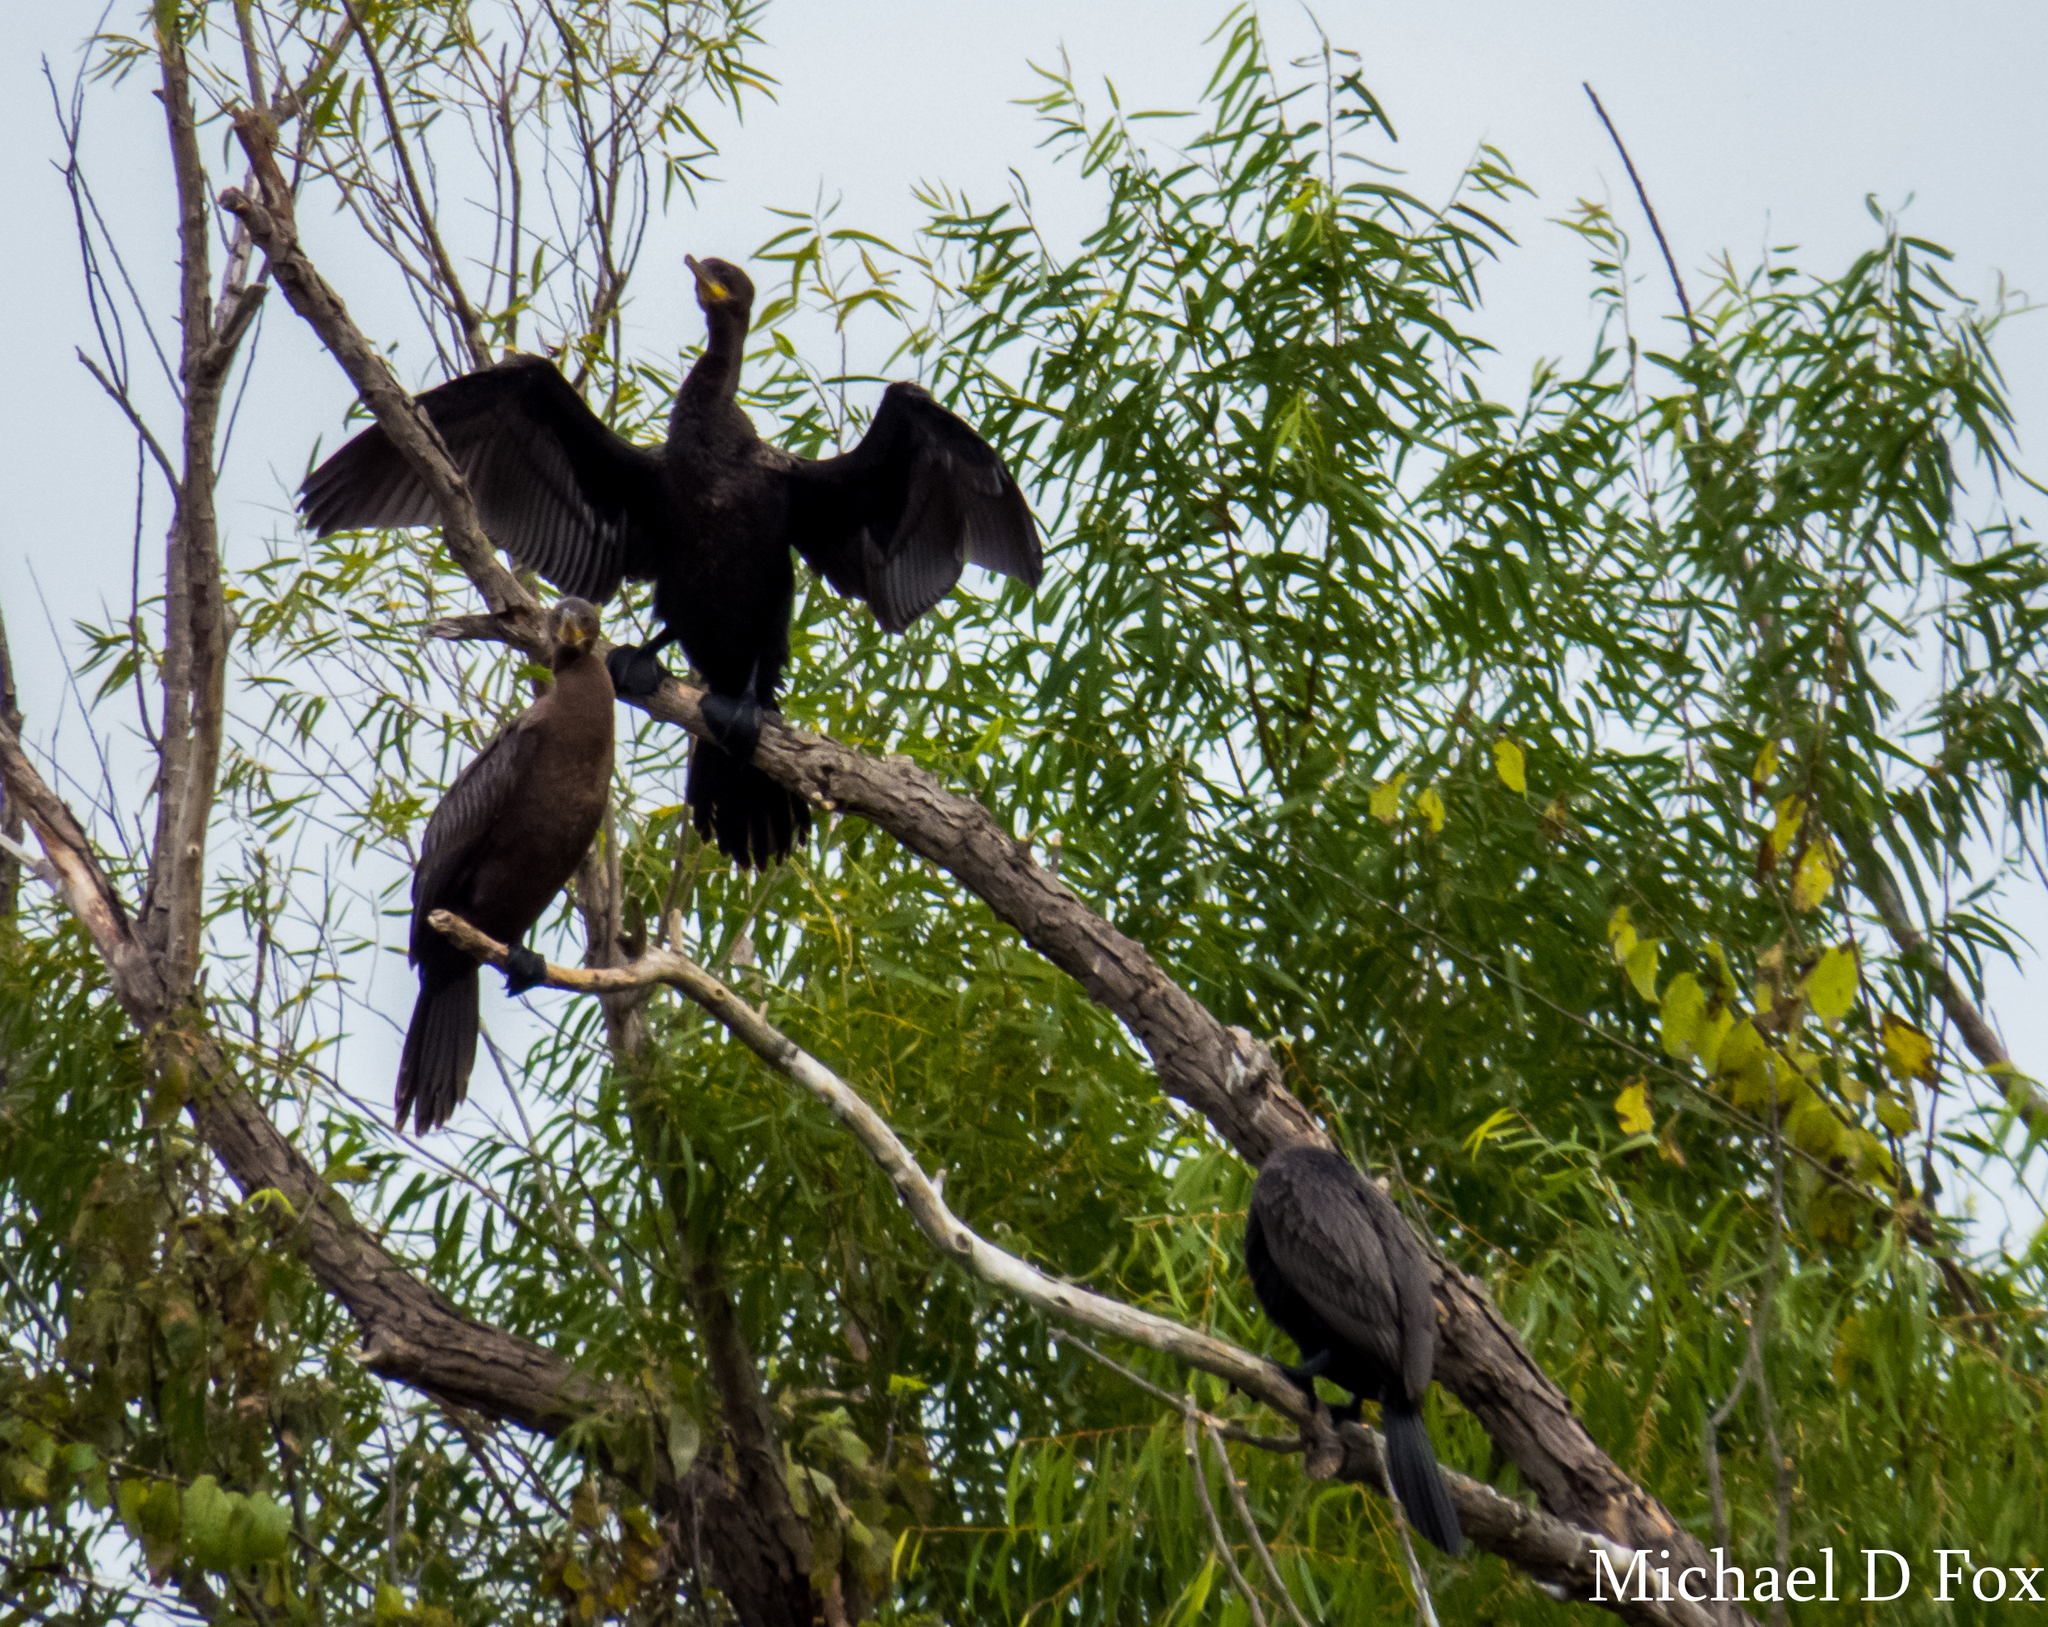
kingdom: Animalia
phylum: Chordata
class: Aves
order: Suliformes
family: Phalacrocoracidae
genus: Phalacrocorax
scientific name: Phalacrocorax brasilianus
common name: Neotropic cormorant
